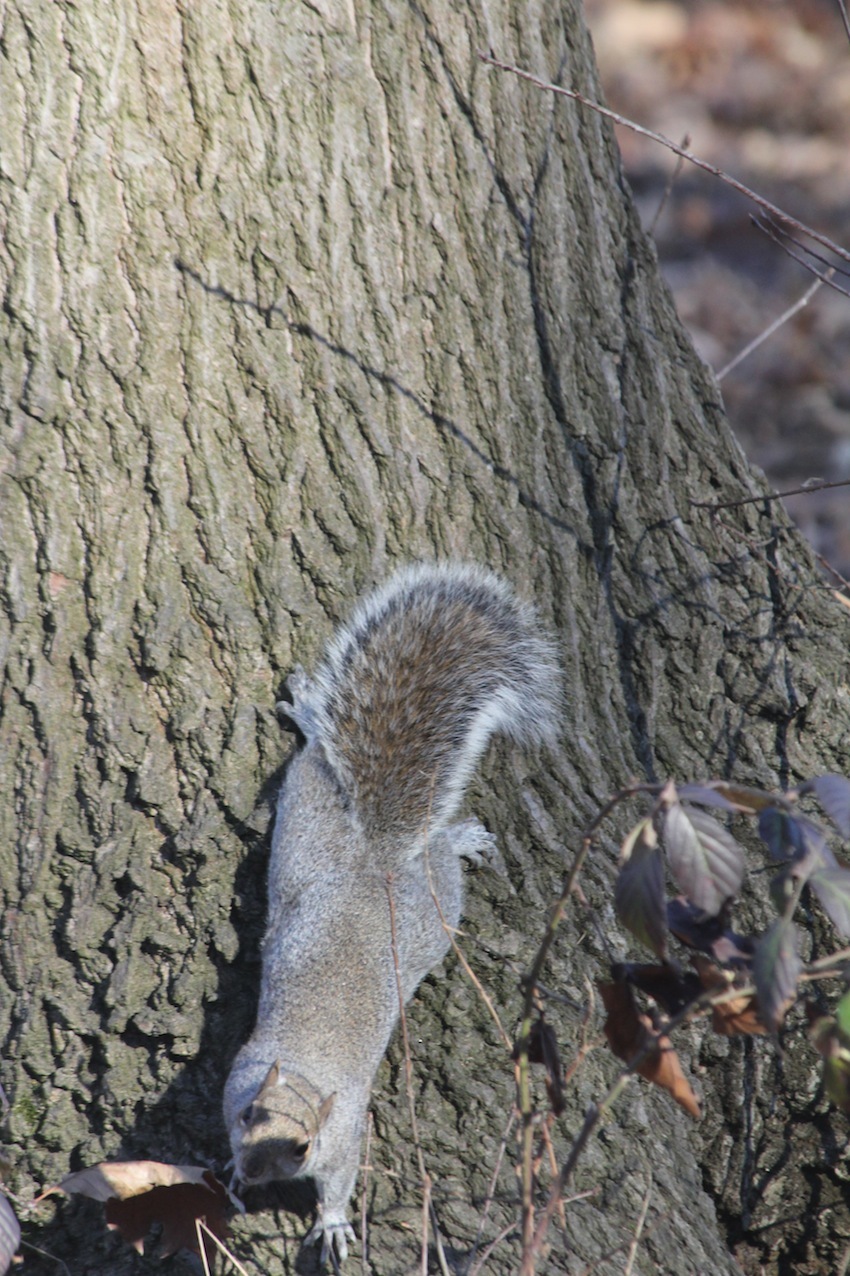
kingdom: Animalia
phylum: Chordata
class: Mammalia
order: Rodentia
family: Sciuridae
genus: Sciurus
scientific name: Sciurus carolinensis
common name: Eastern gray squirrel
